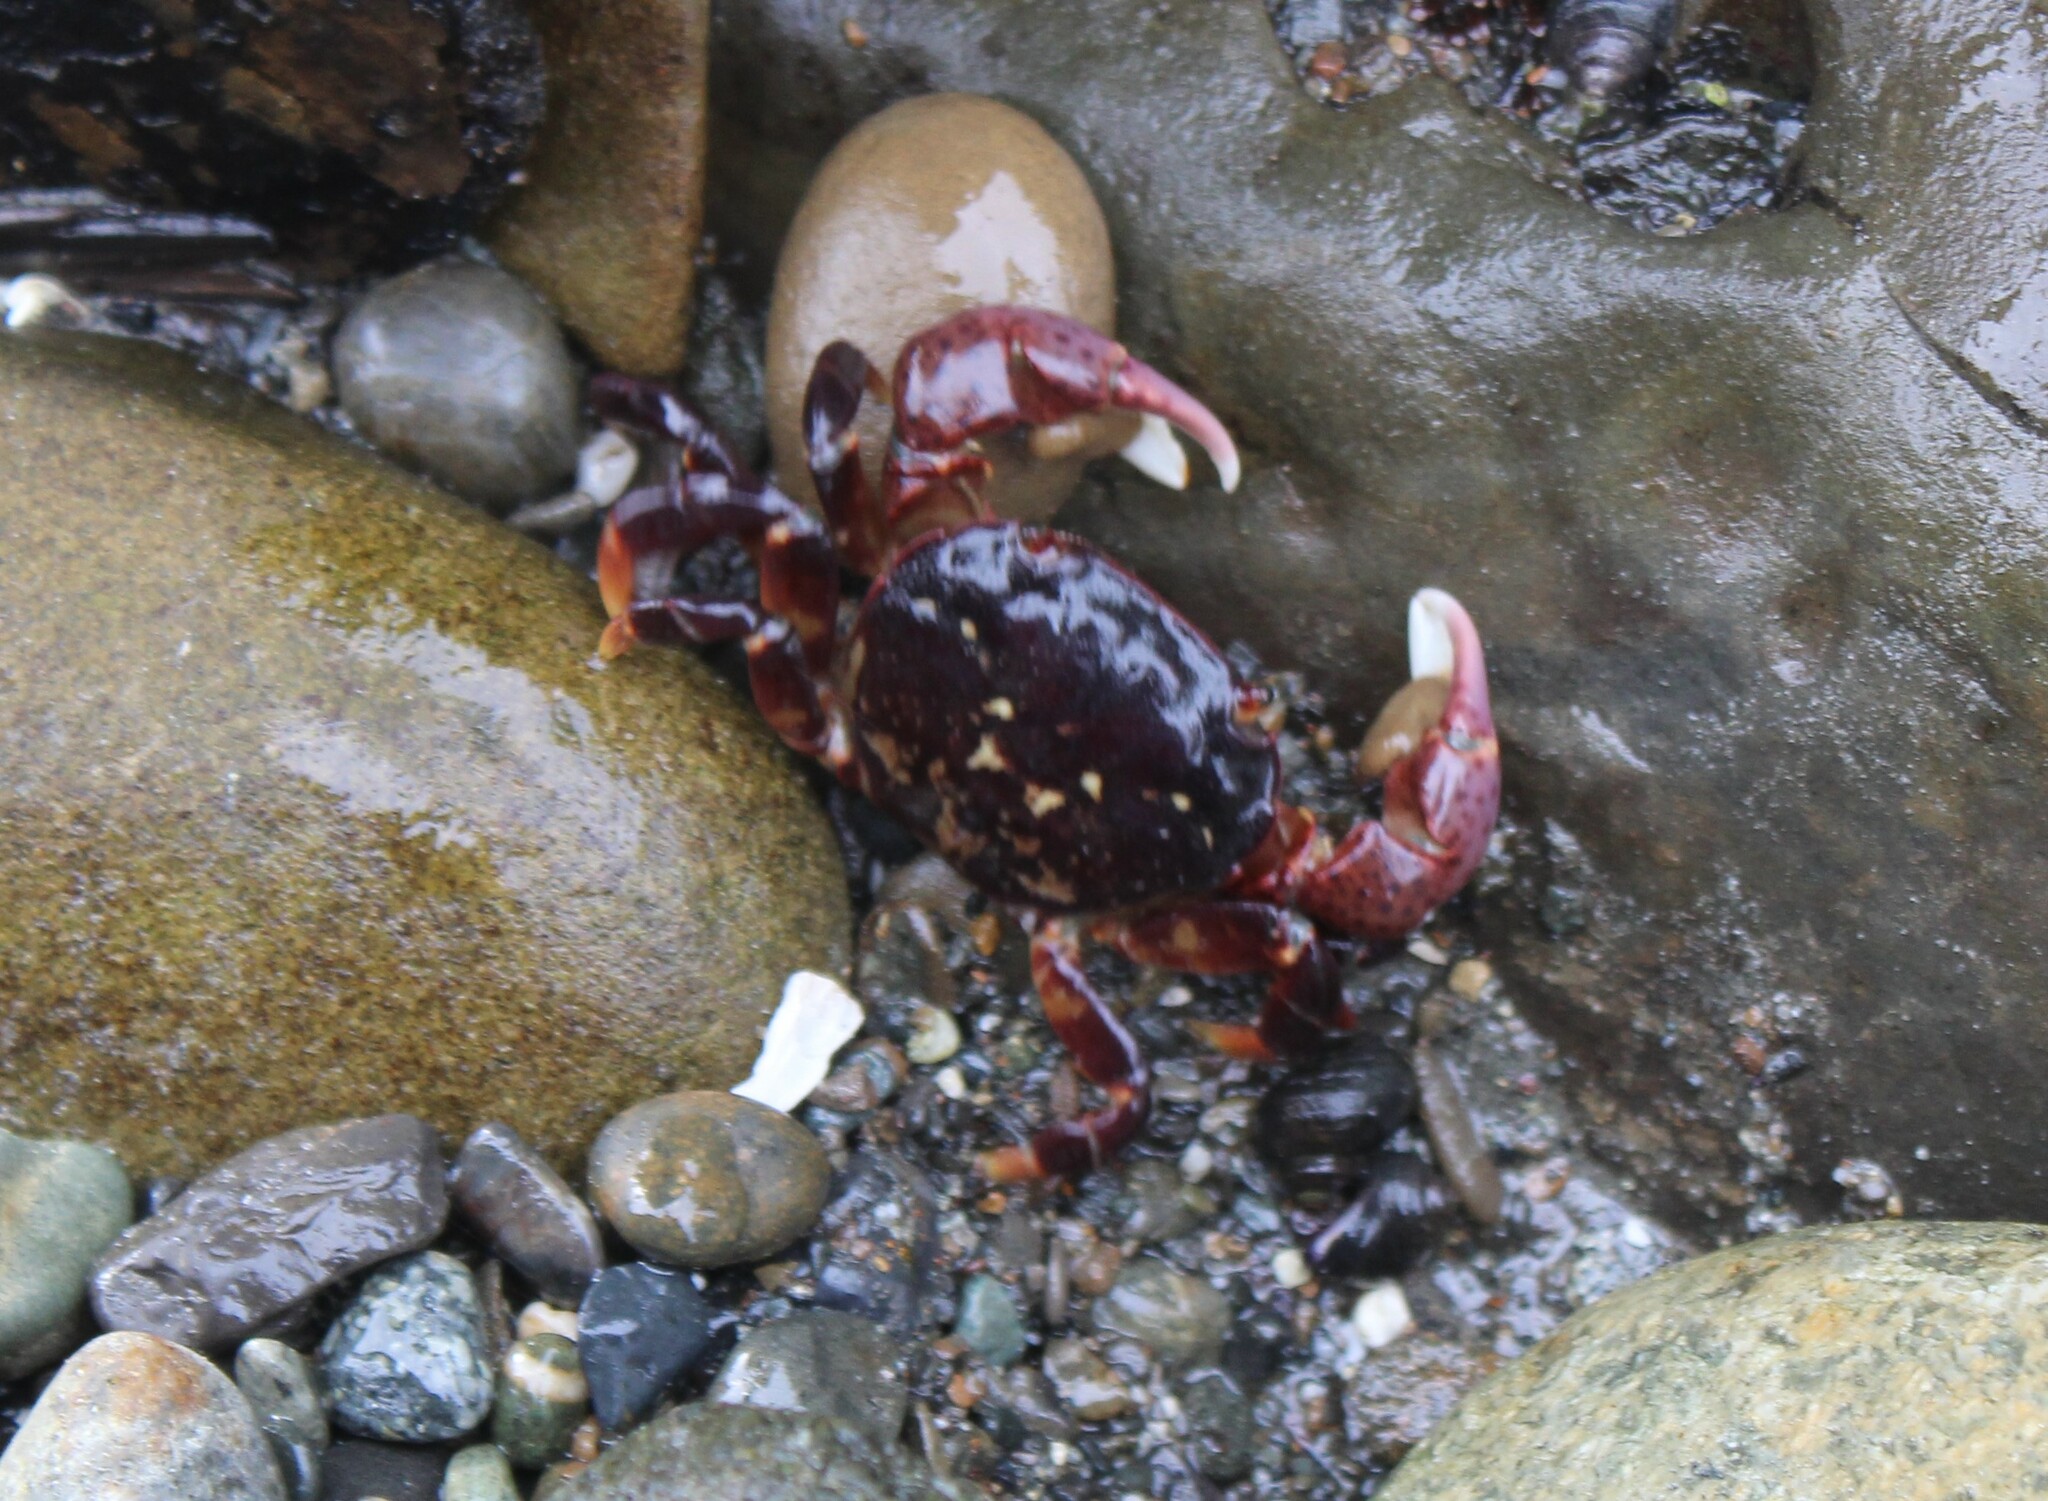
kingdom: Animalia
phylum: Arthropoda
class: Malacostraca
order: Decapoda
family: Varunidae
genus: Hemigrapsus
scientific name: Hemigrapsus nudus
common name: Purple shore crab
